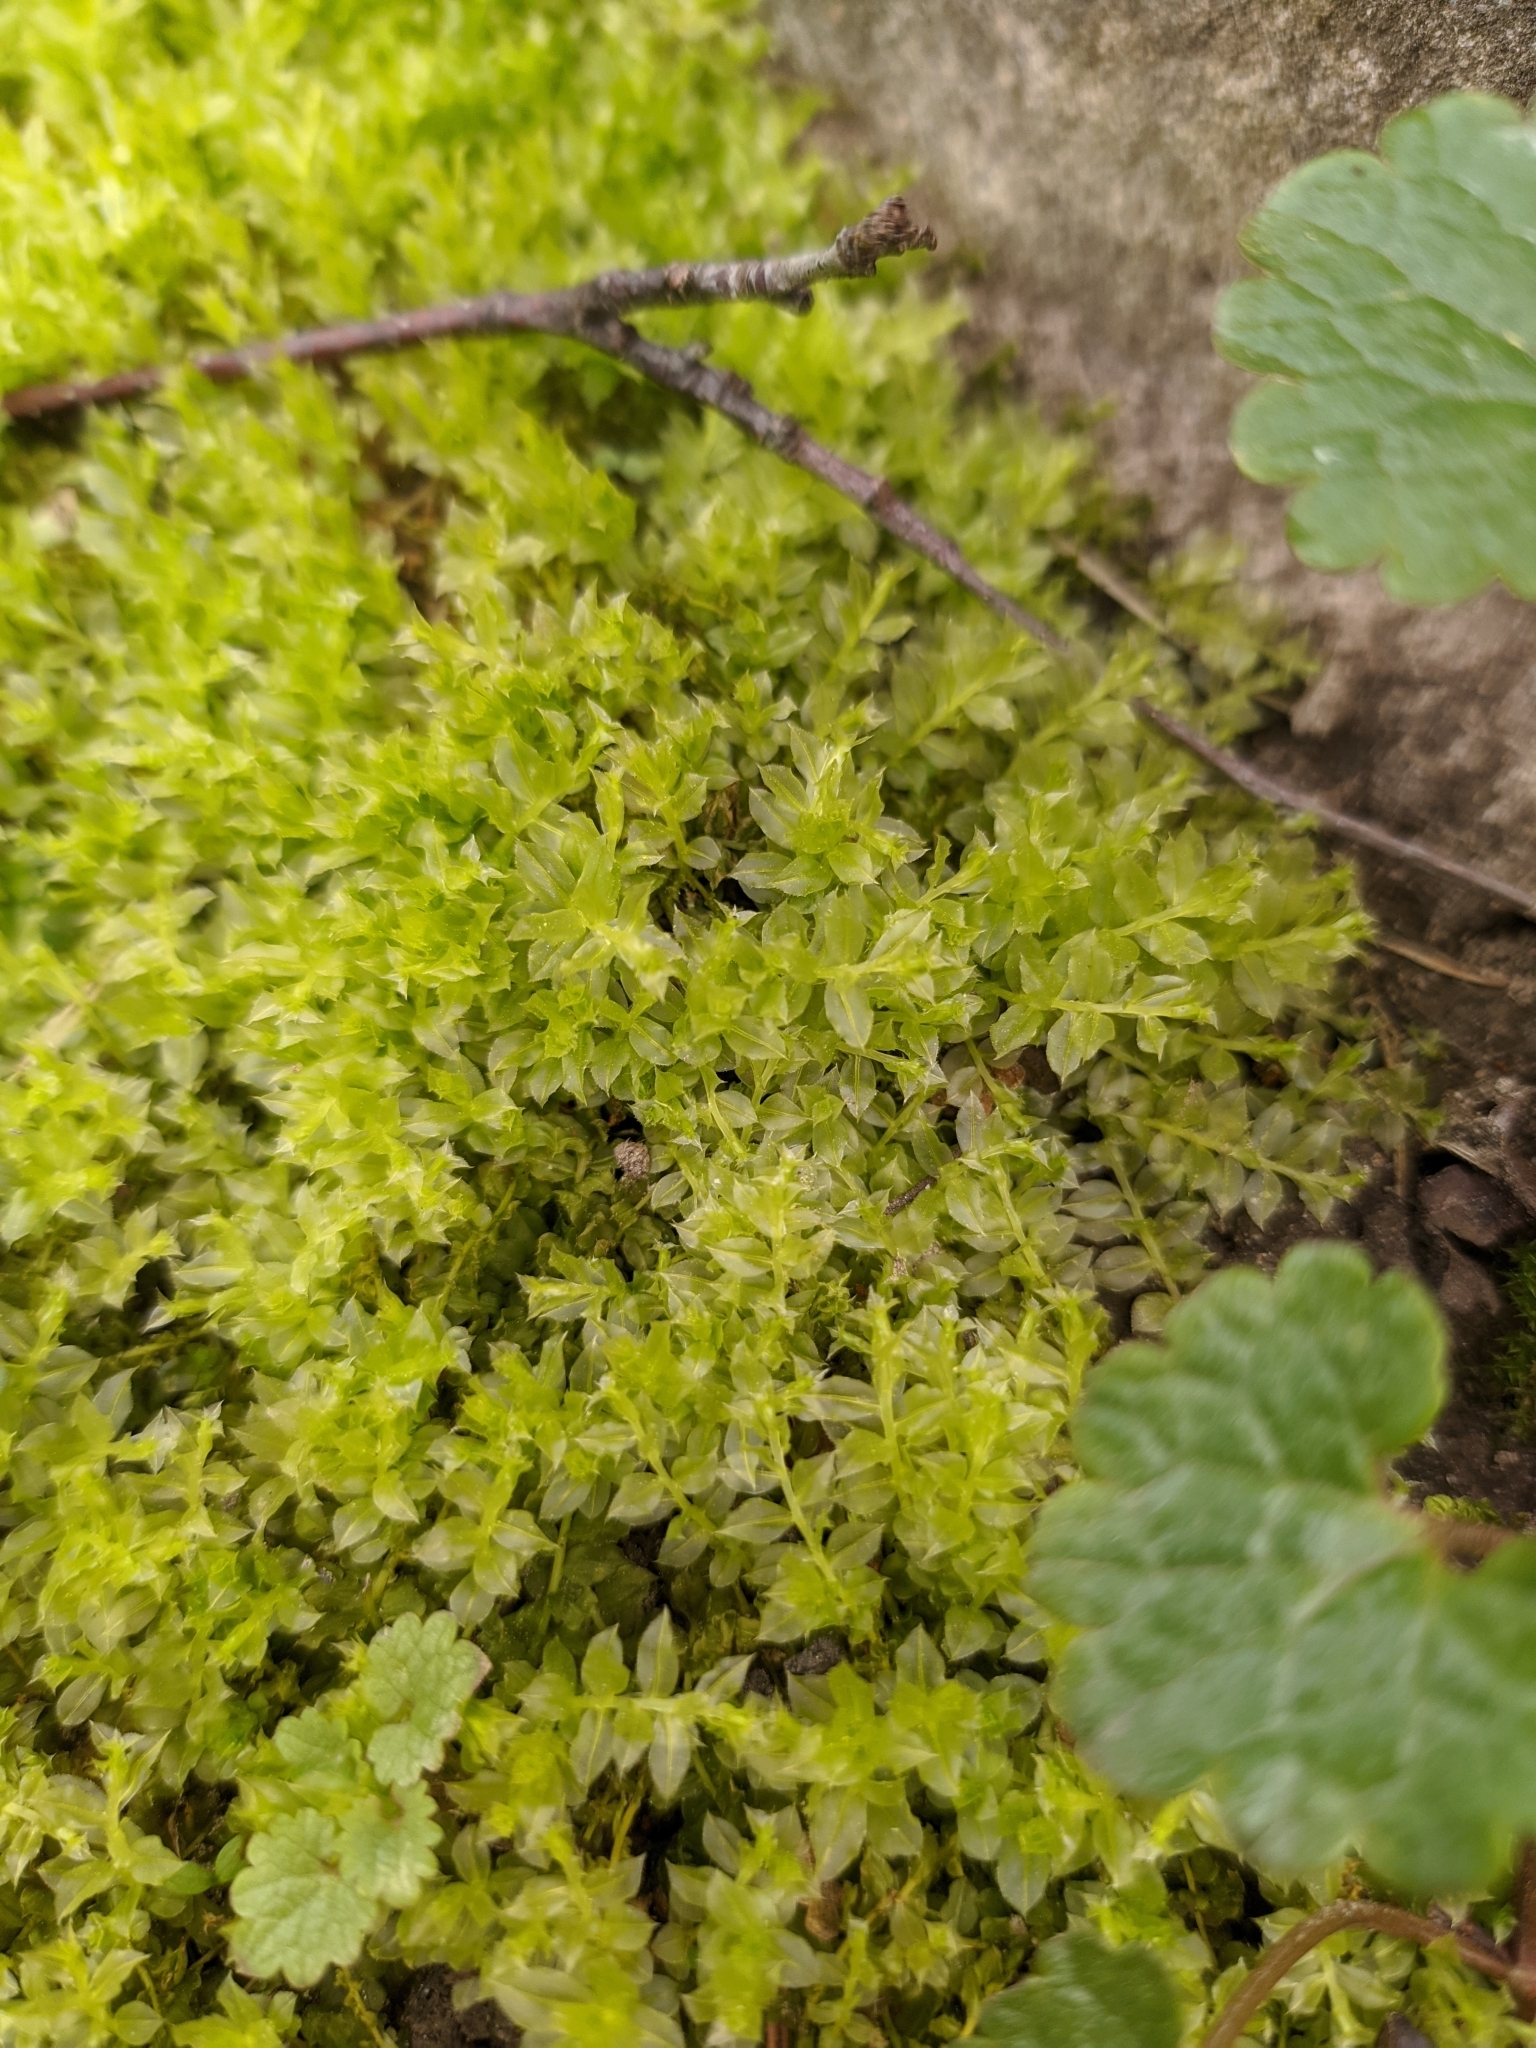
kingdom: Plantae
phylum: Bryophyta
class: Bryopsida
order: Bryales
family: Mniaceae
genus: Plagiomnium
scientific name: Plagiomnium cuspidatum
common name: Woodsy leafy moss
